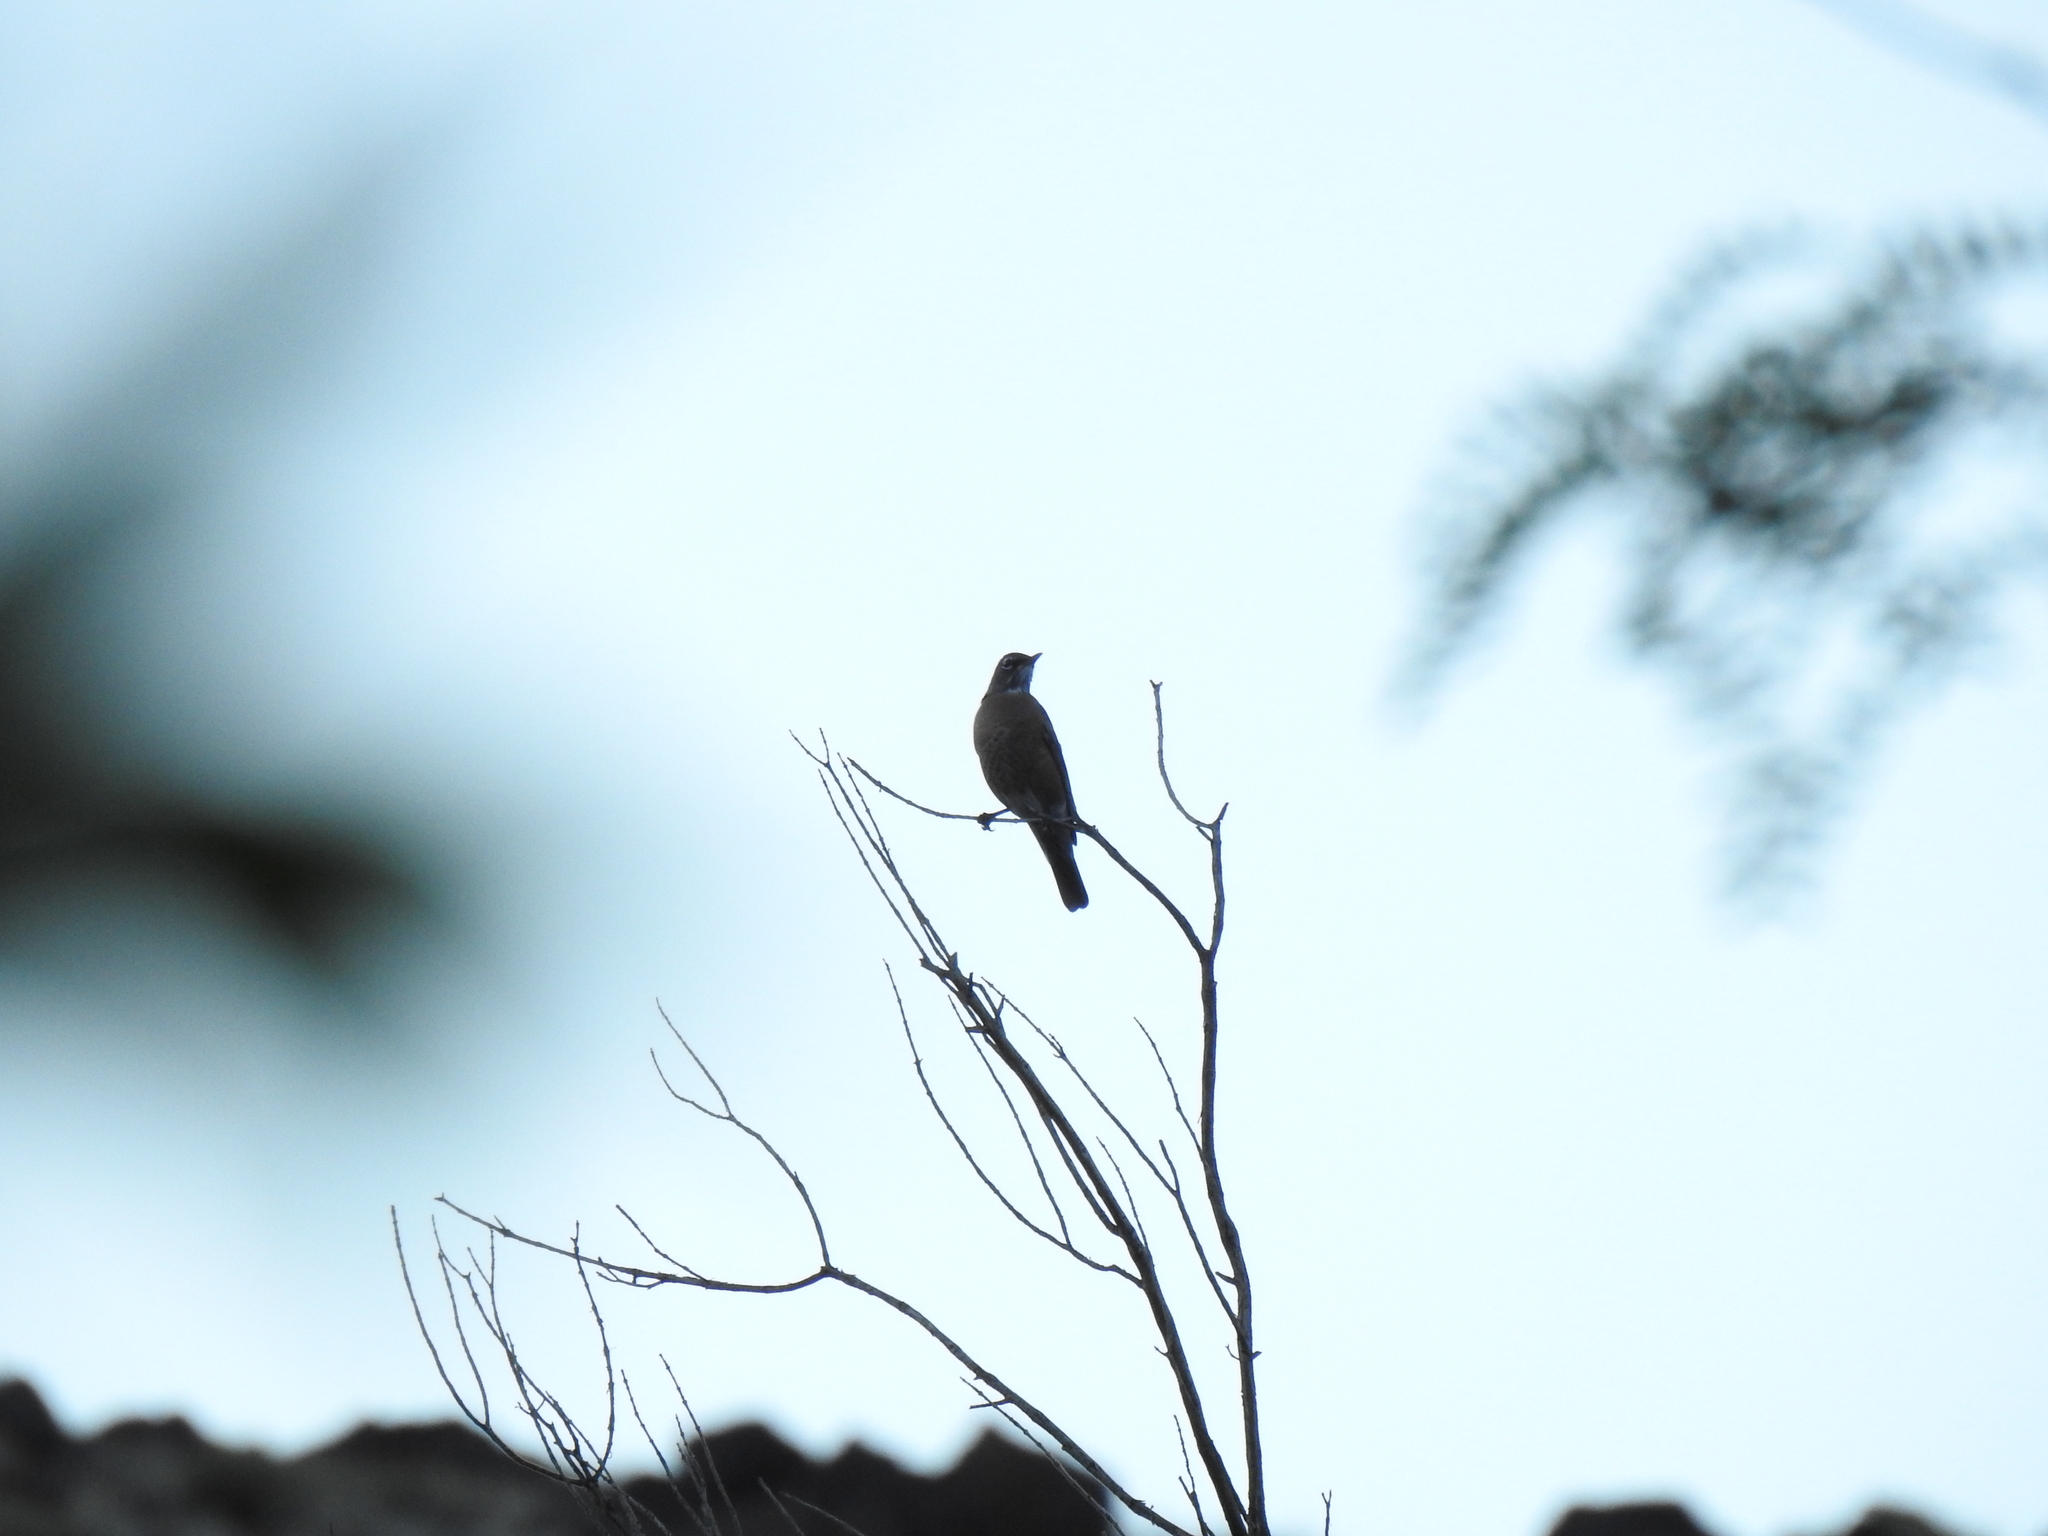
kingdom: Animalia
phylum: Chordata
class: Aves
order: Passeriformes
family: Turdidae
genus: Turdus
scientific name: Turdus migratorius
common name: American robin
